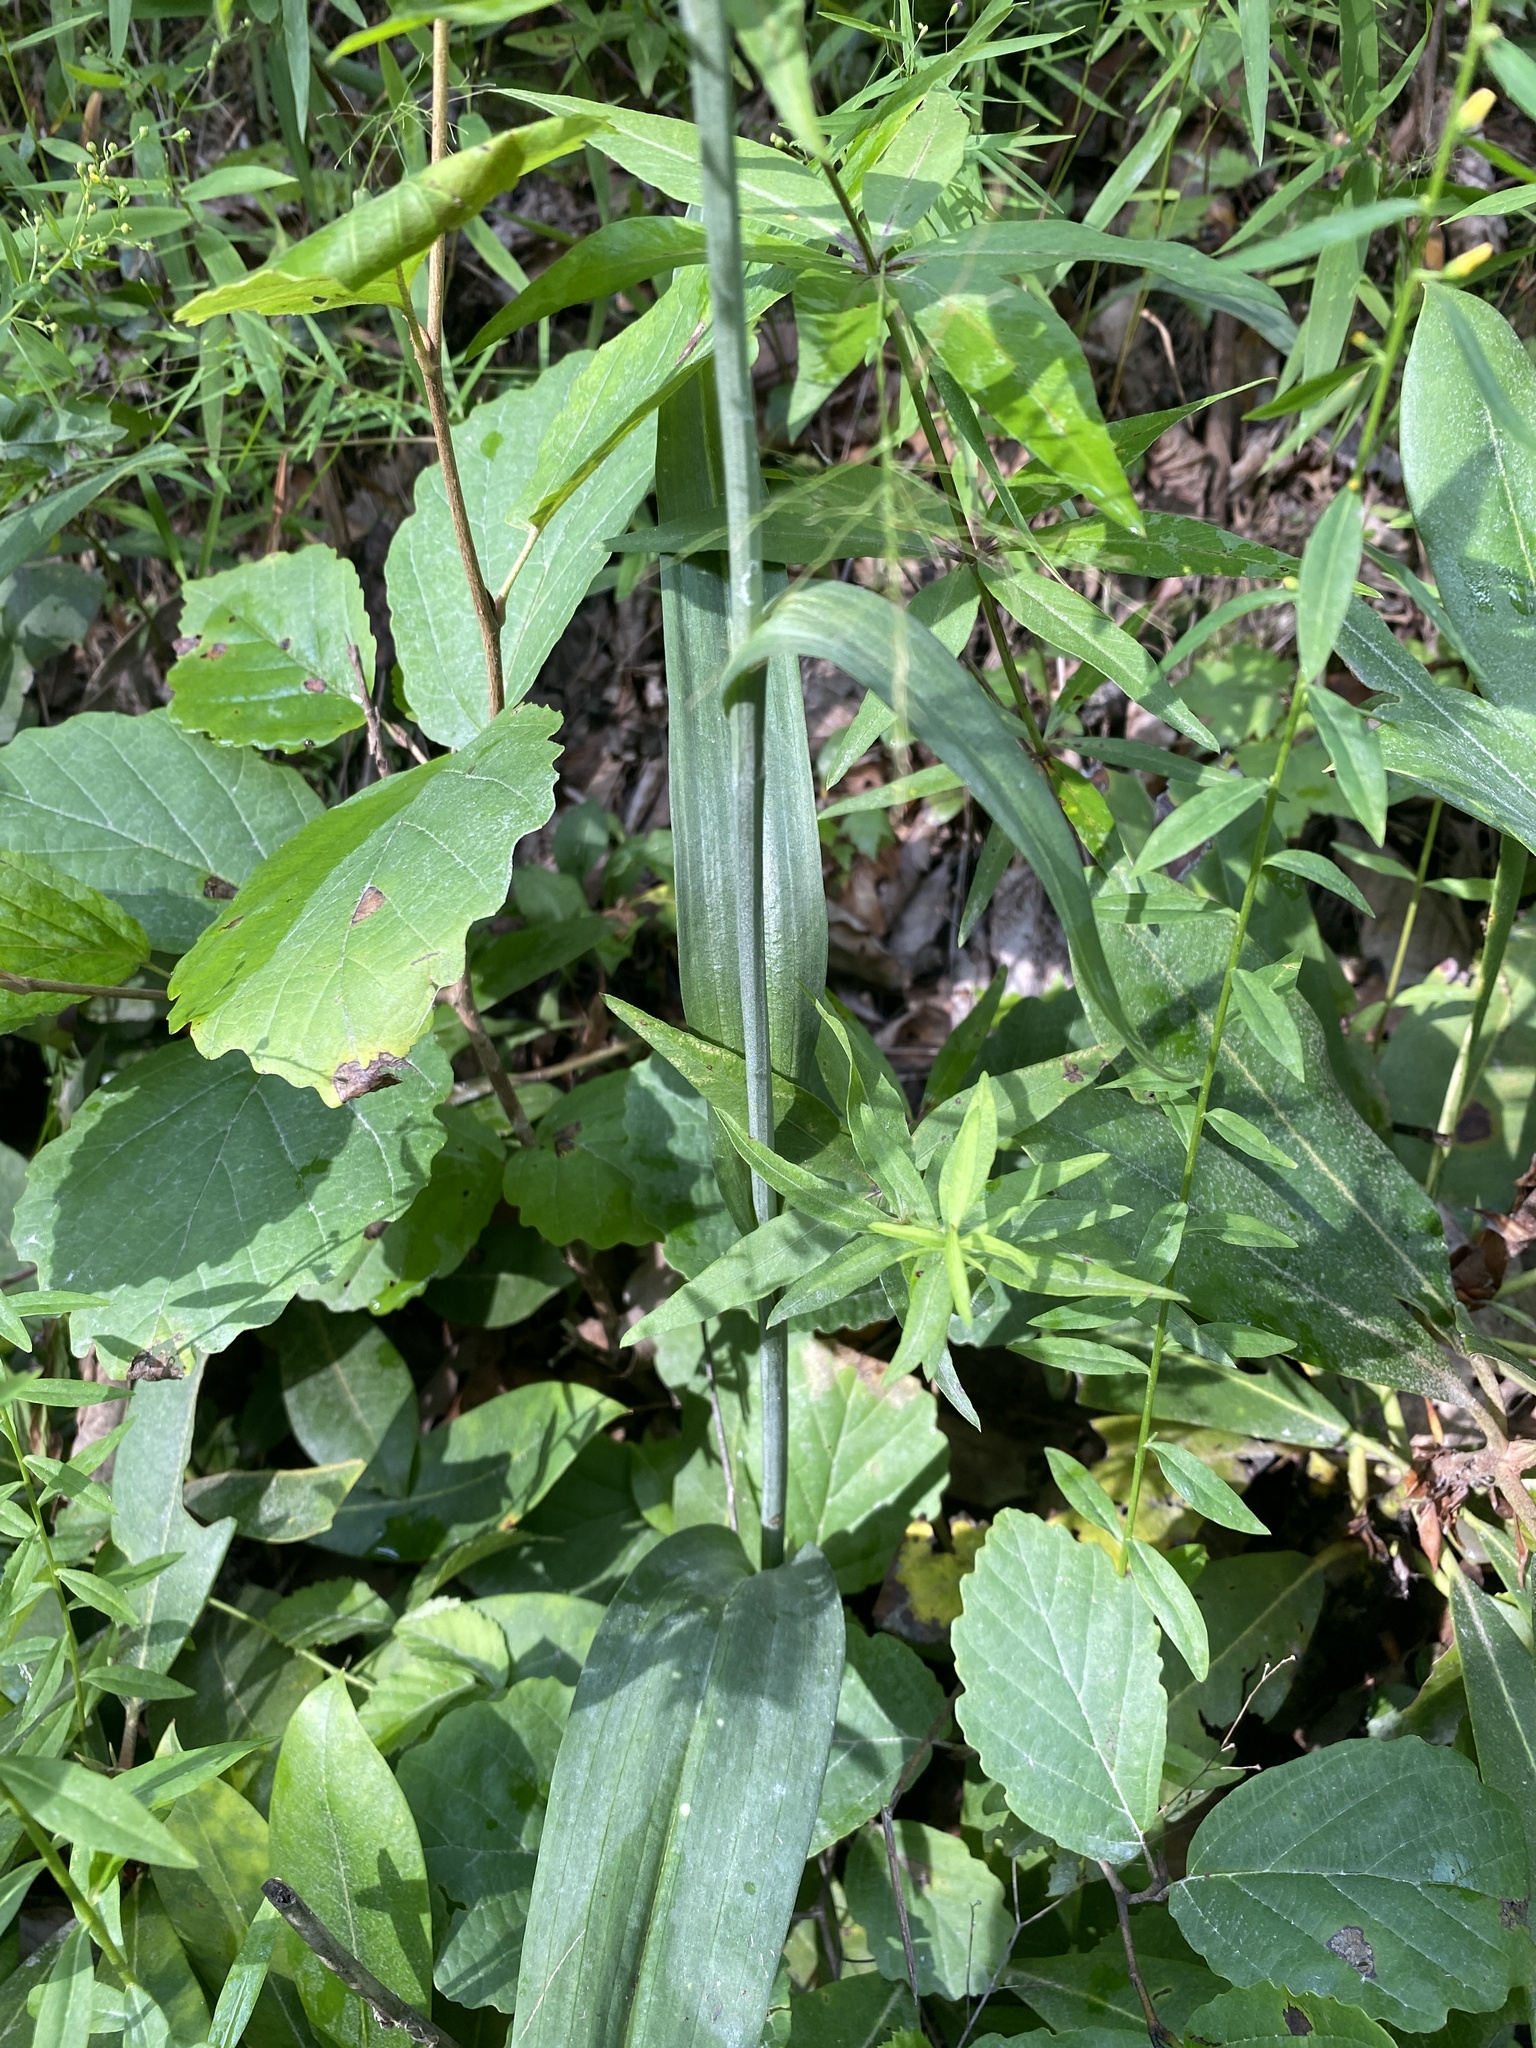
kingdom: Plantae
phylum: Tracheophyta
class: Liliopsida
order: Asparagales
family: Orchidaceae
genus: Platanthera
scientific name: Platanthera ciliaris
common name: Yellow fringed orchid
